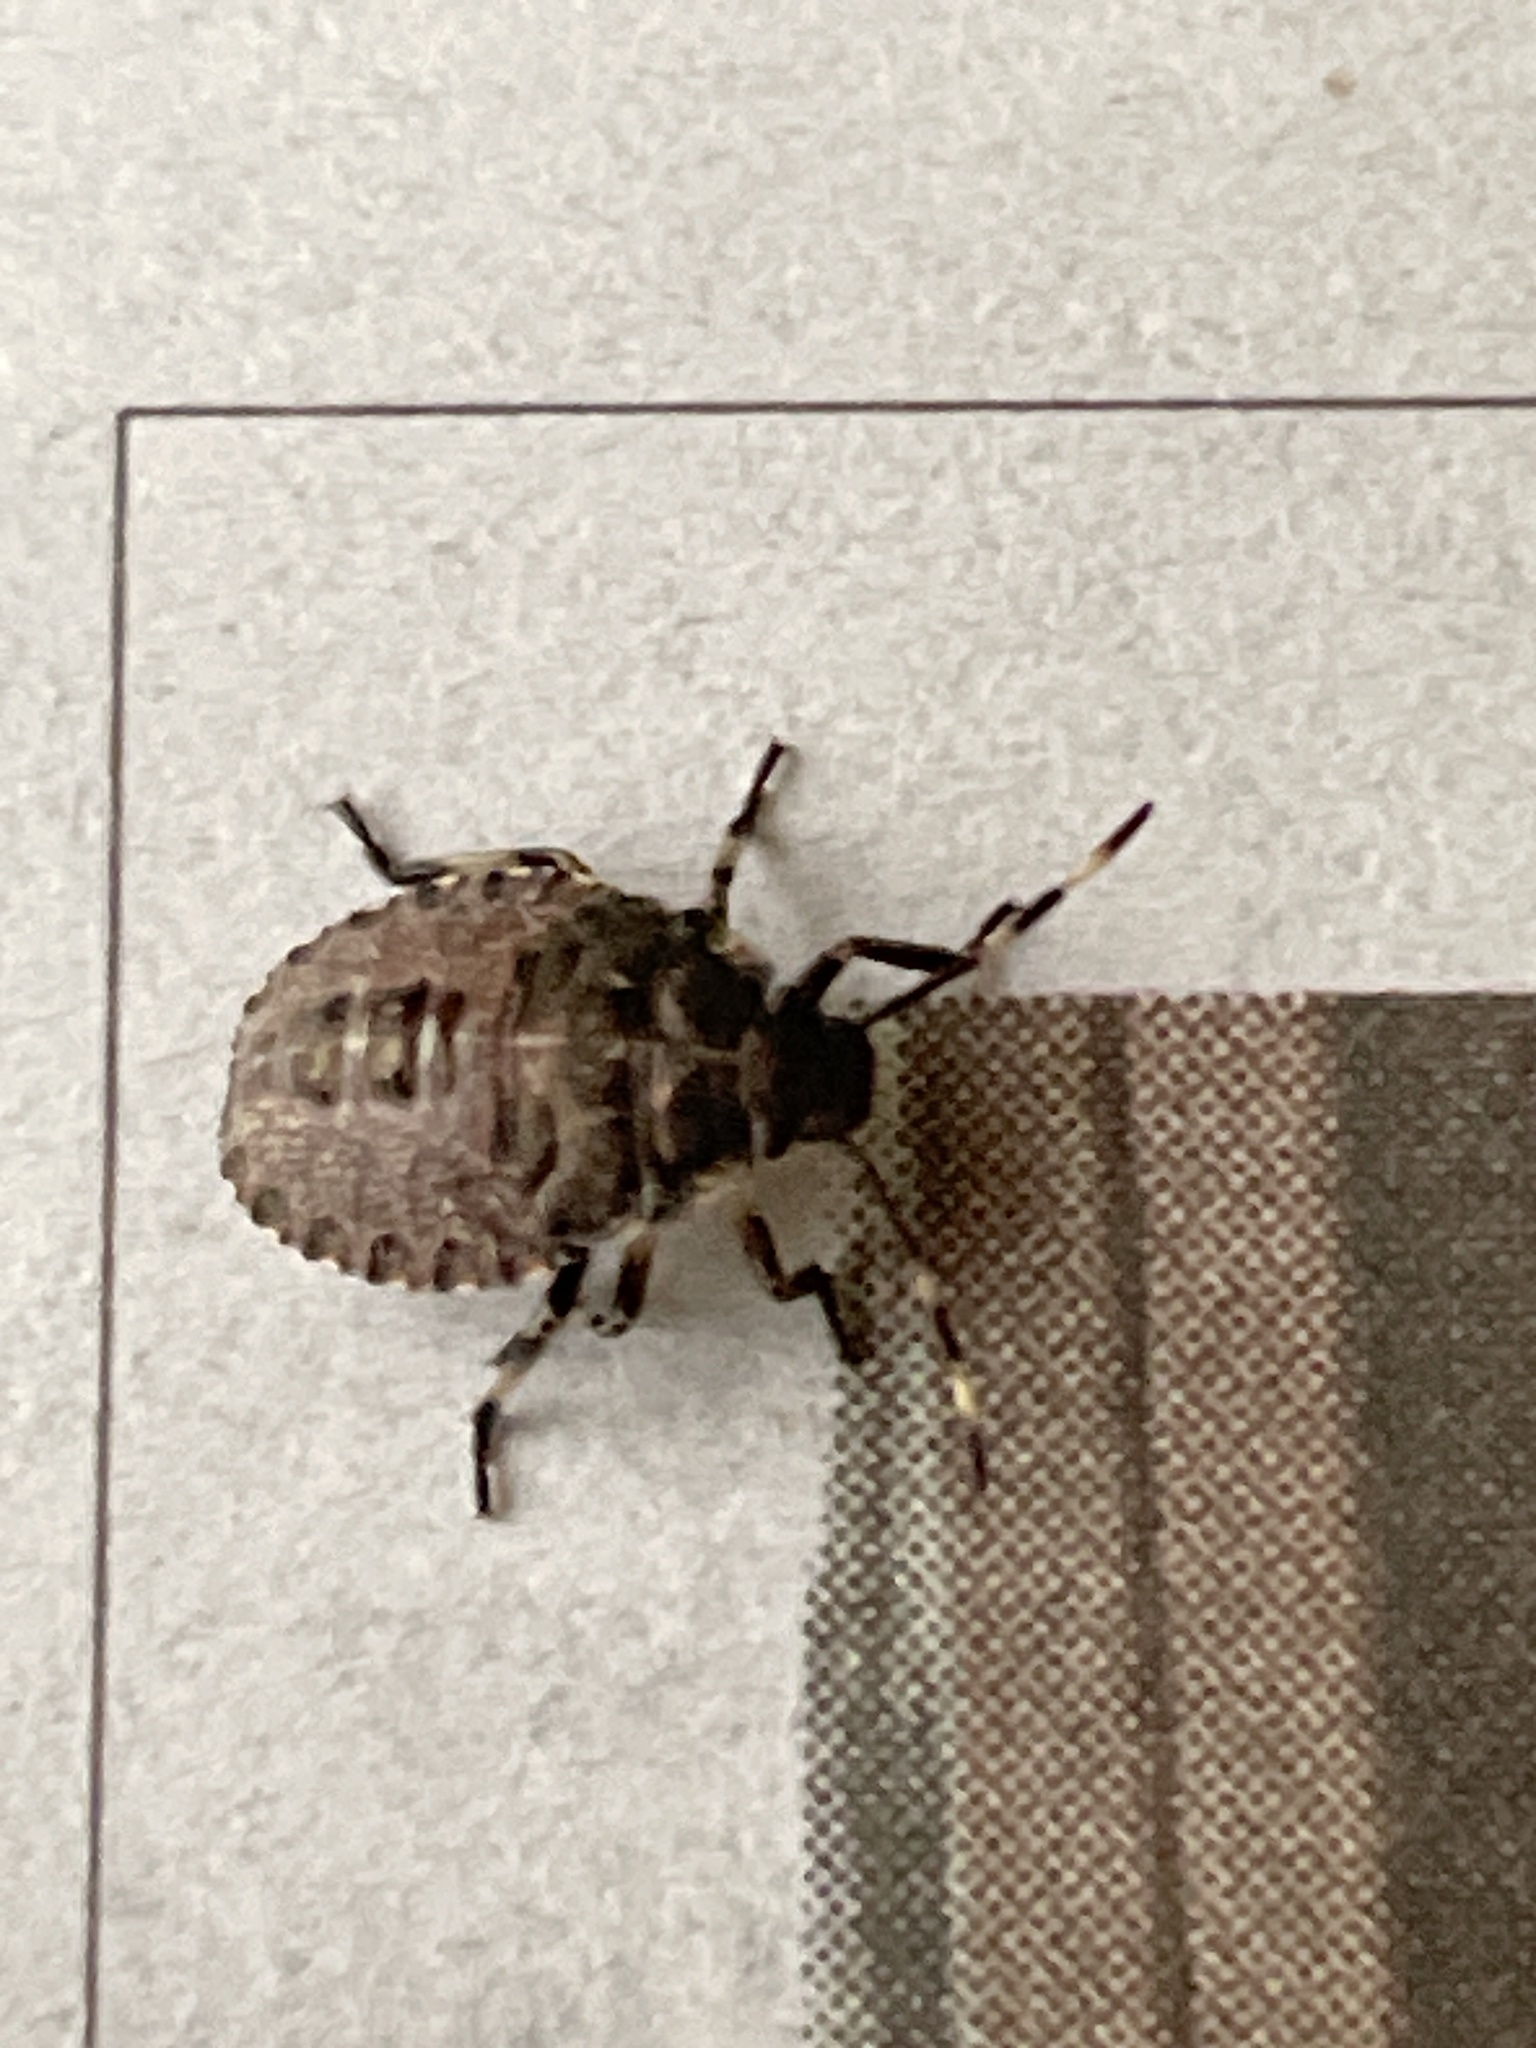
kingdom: Animalia
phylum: Arthropoda
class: Insecta
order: Hemiptera
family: Pentatomidae
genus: Rhaphigaster
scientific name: Rhaphigaster nebulosa
